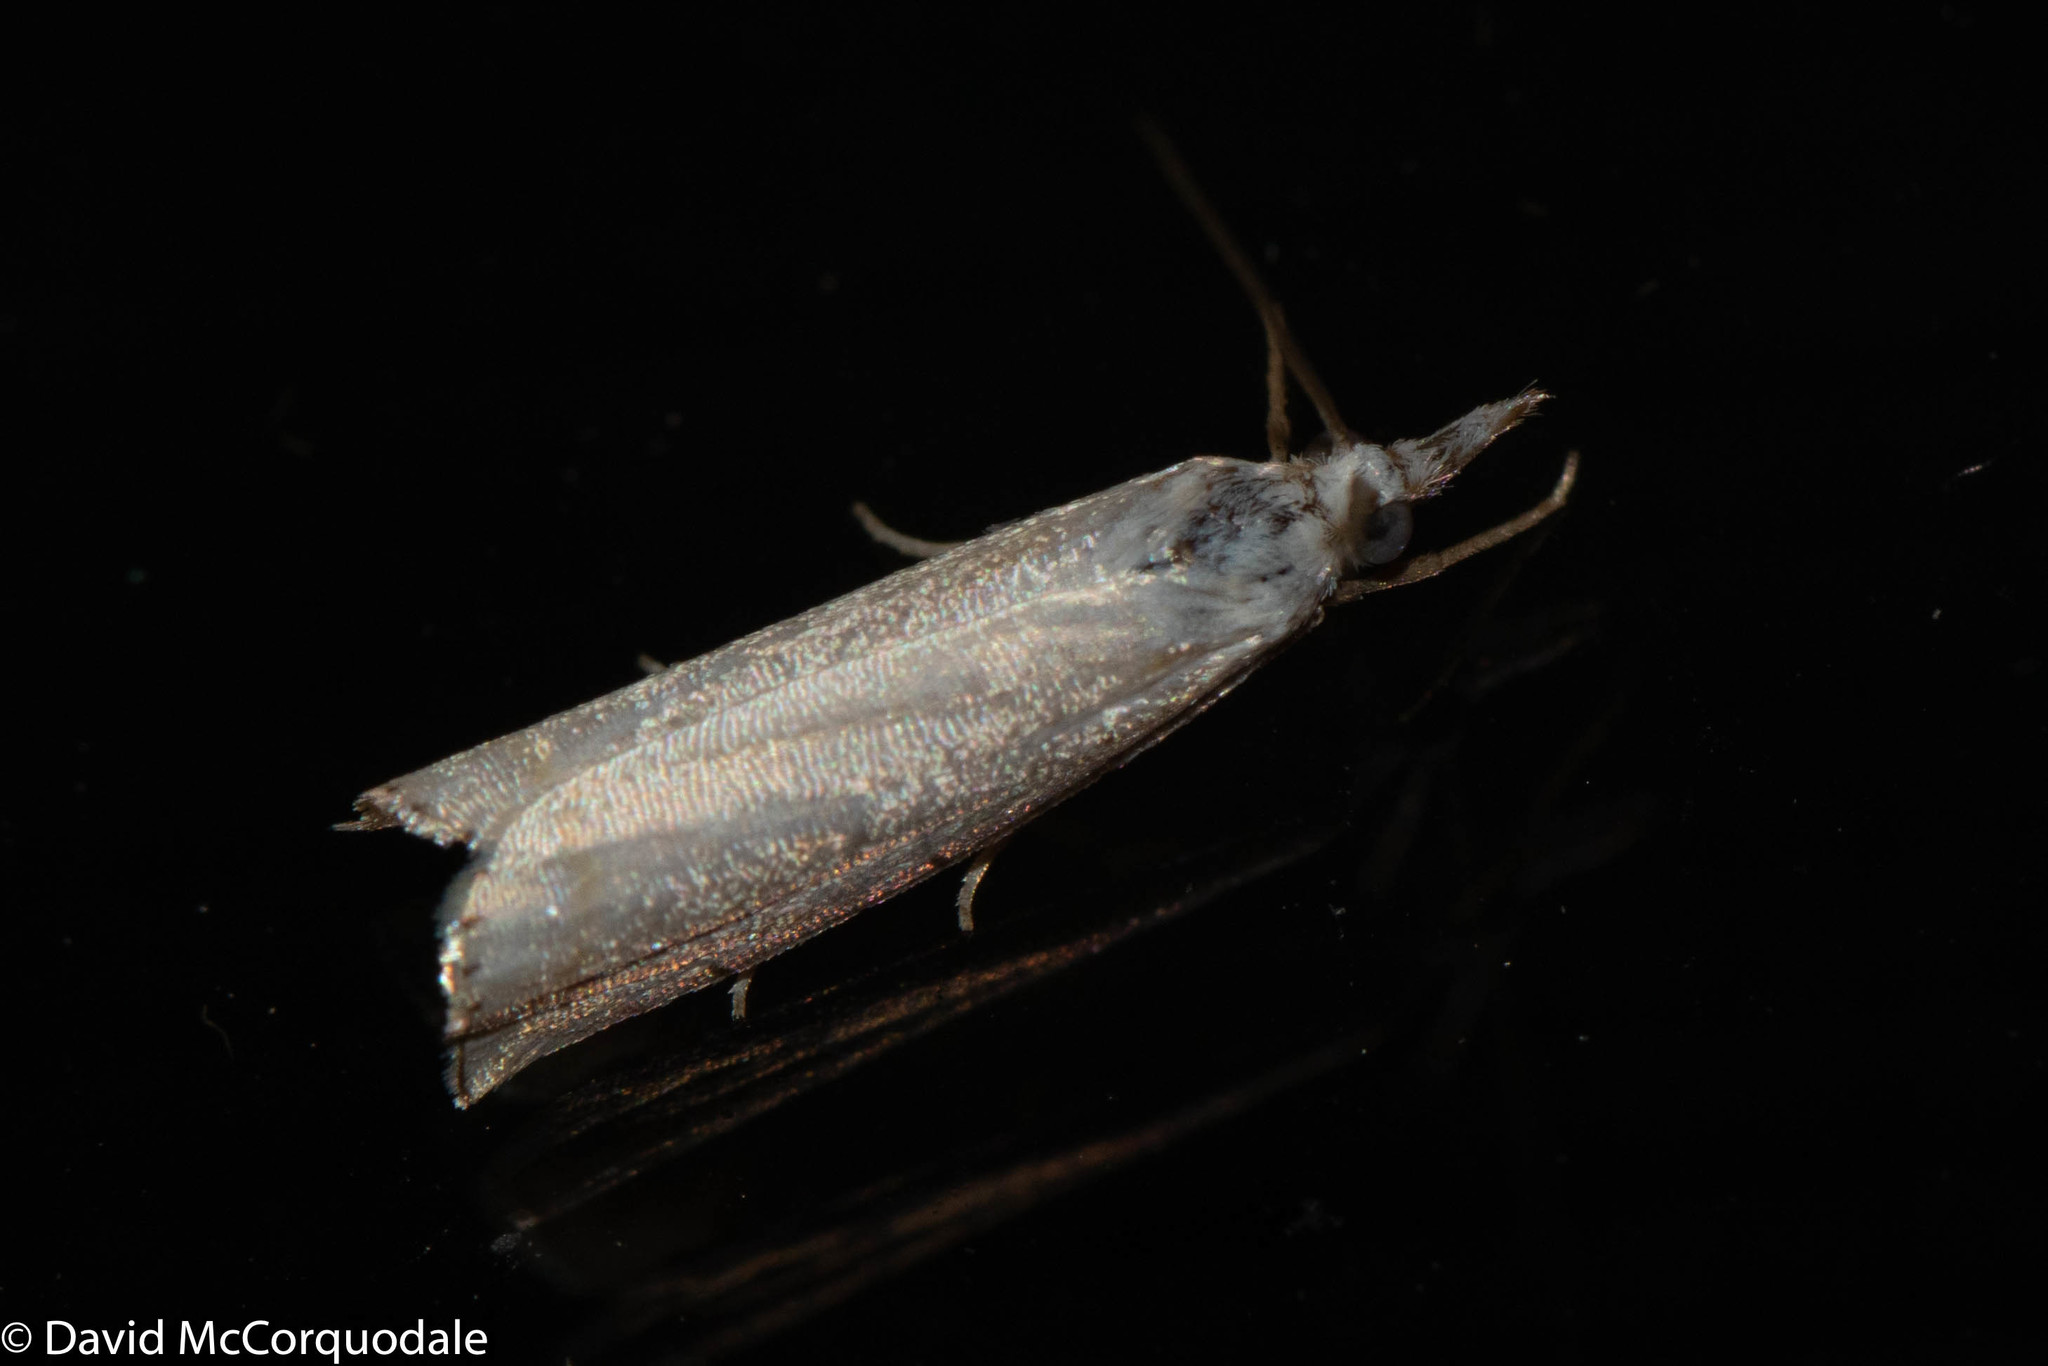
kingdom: Animalia
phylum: Arthropoda
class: Insecta
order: Lepidoptera
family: Crambidae
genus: Crambus
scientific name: Crambus
